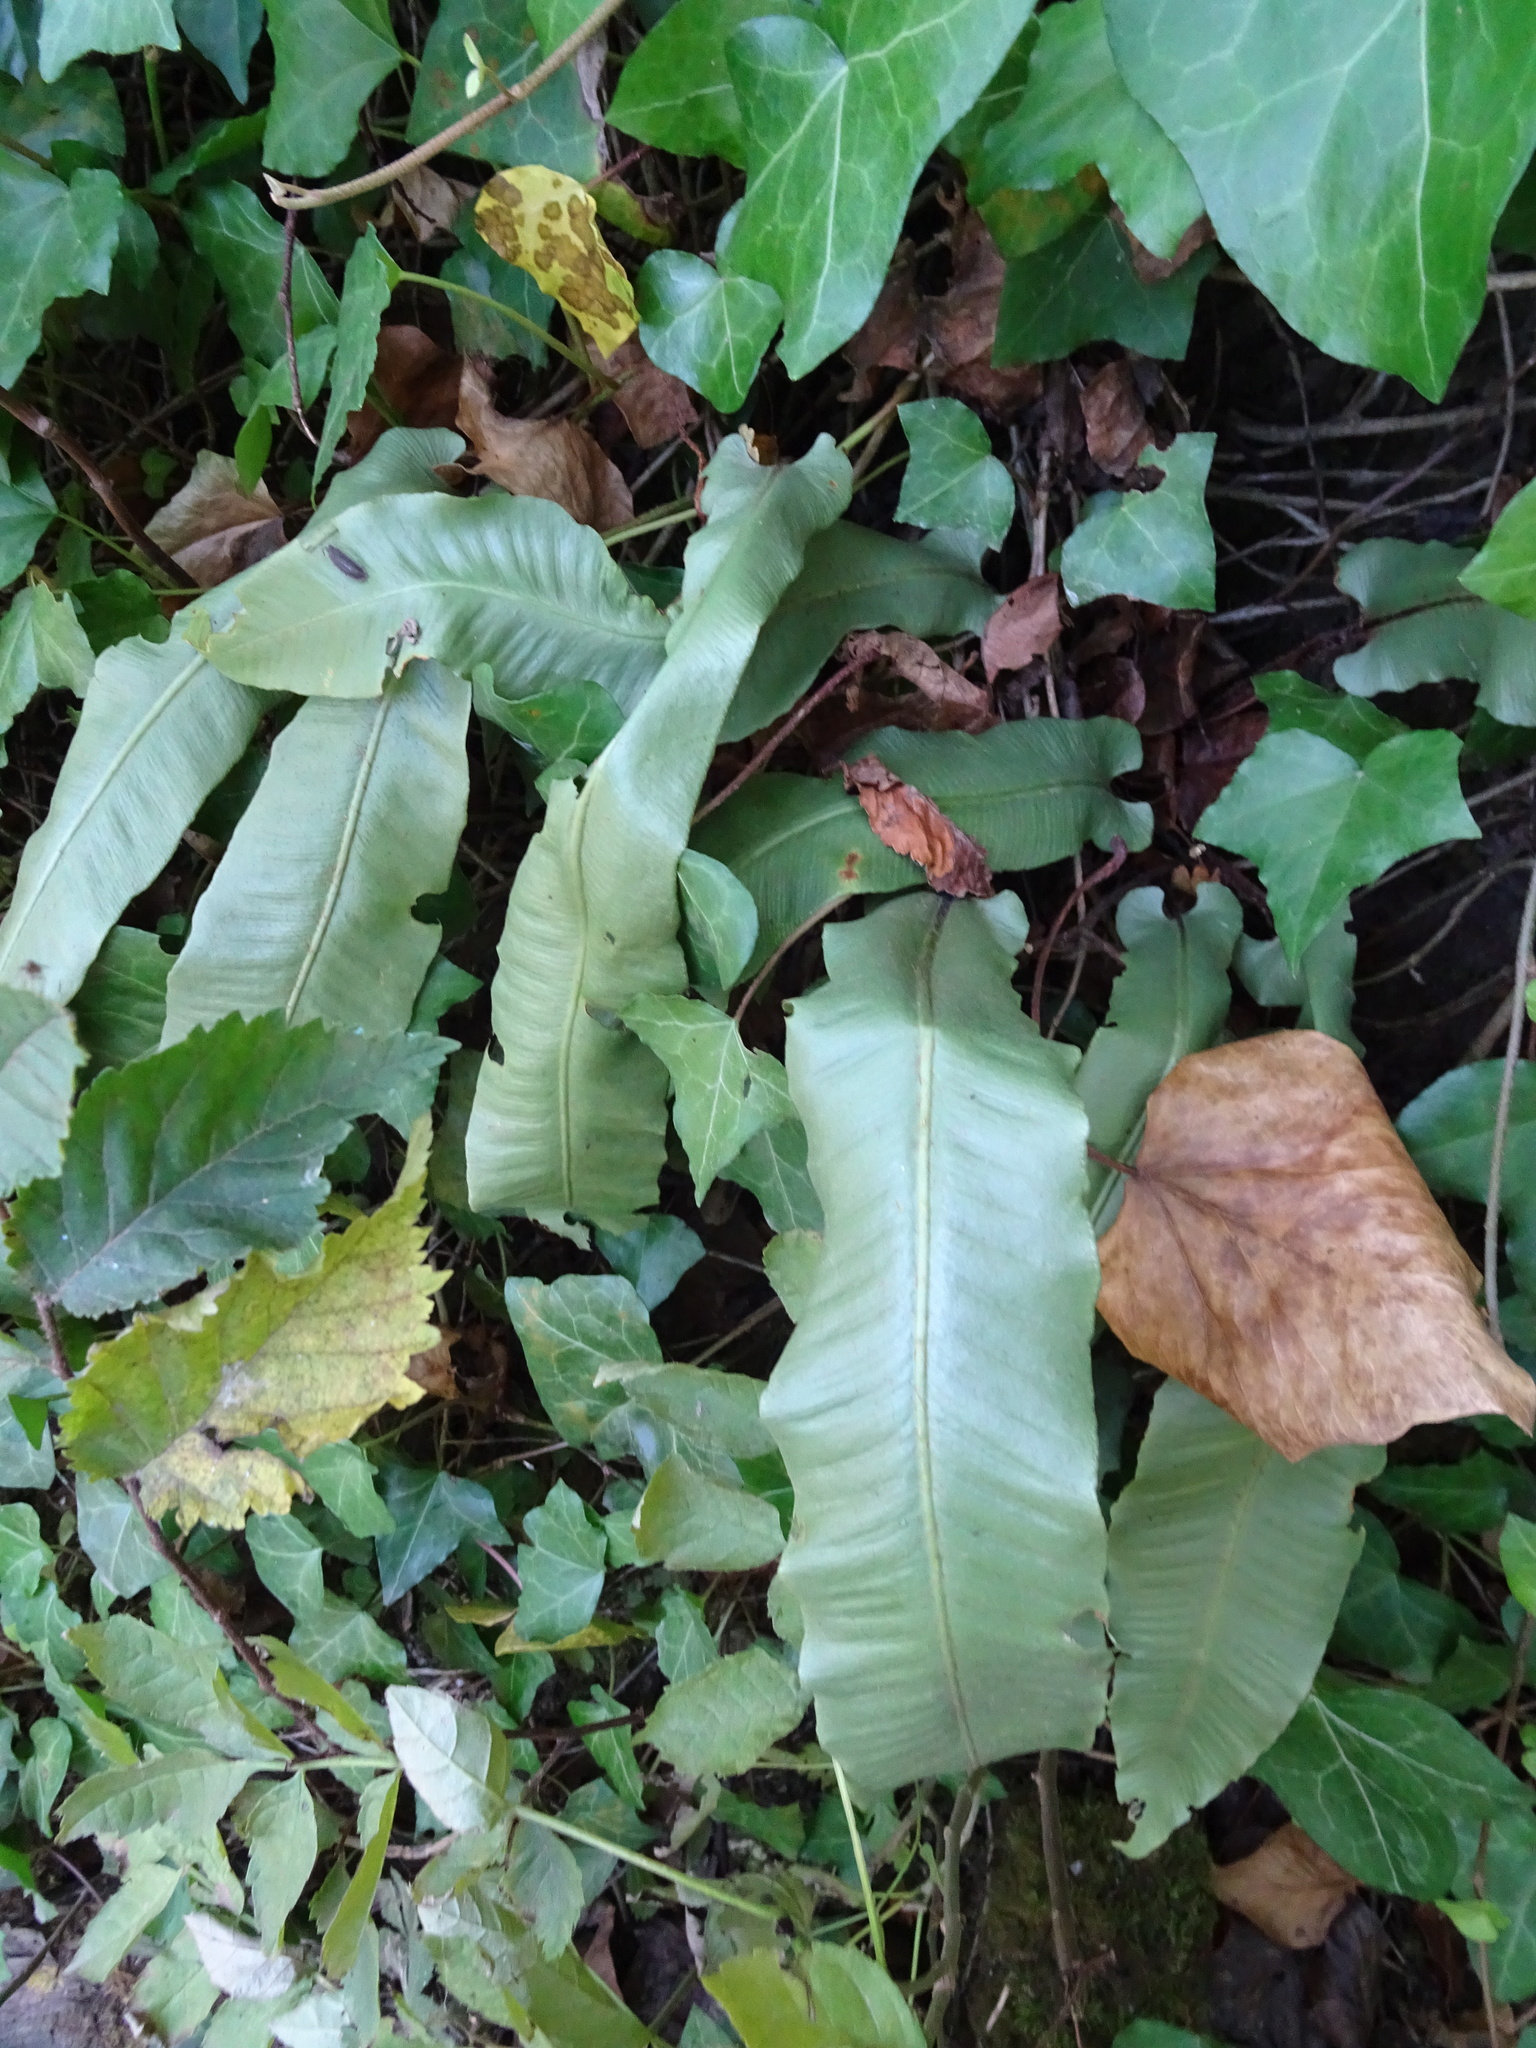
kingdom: Plantae
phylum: Tracheophyta
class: Polypodiopsida
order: Polypodiales
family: Aspleniaceae
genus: Asplenium
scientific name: Asplenium scolopendrium
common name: Hart's-tongue fern
